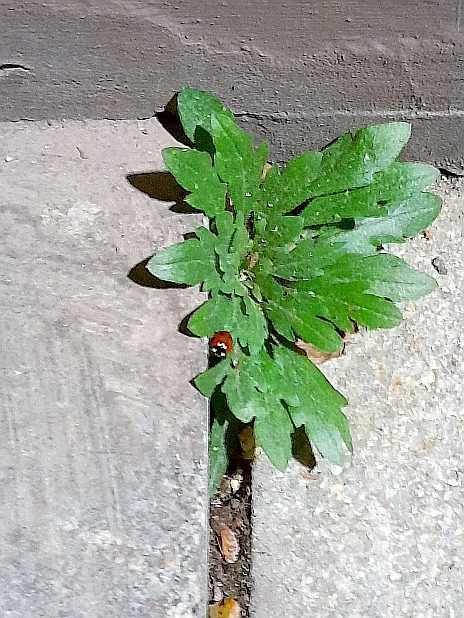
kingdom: Animalia
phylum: Arthropoda
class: Insecta
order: Coleoptera
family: Coccinellidae
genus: Coccinella
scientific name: Coccinella septempunctata
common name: Sevenspotted lady beetle
